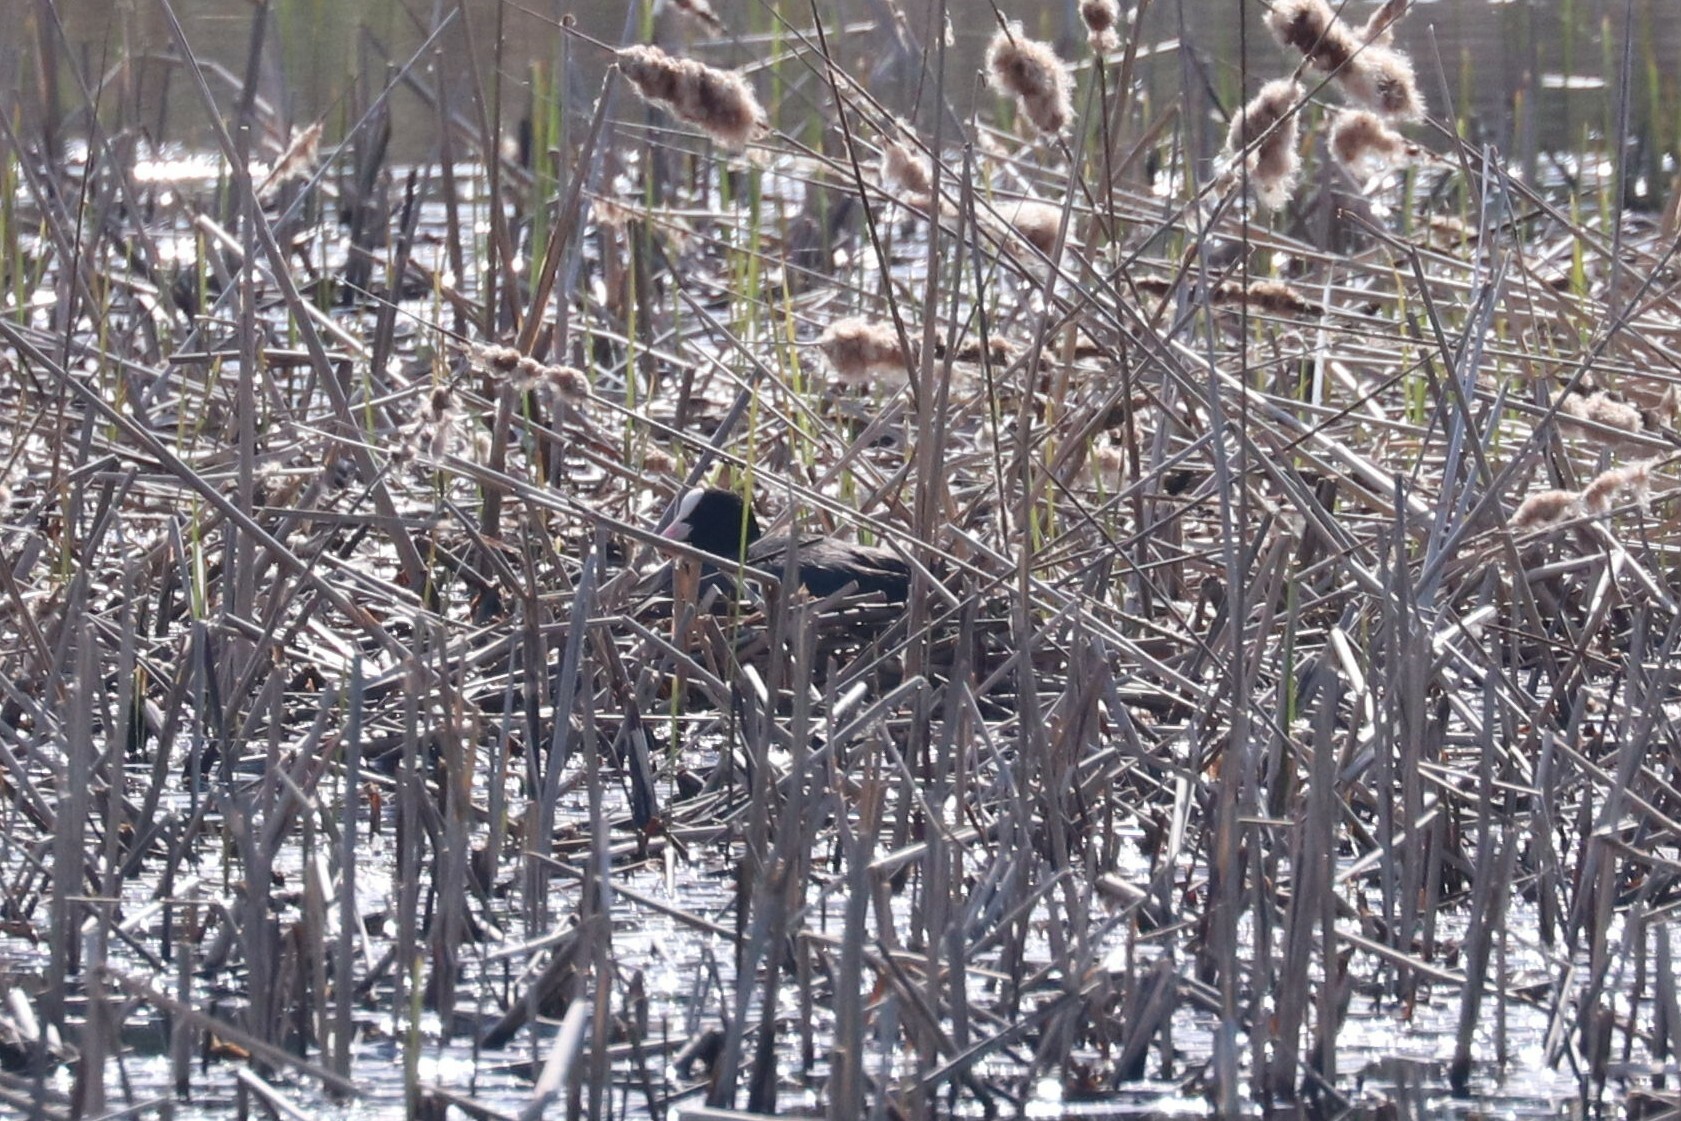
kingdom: Animalia
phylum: Chordata
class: Aves
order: Gruiformes
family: Rallidae
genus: Fulica
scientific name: Fulica atra
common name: Eurasian coot
